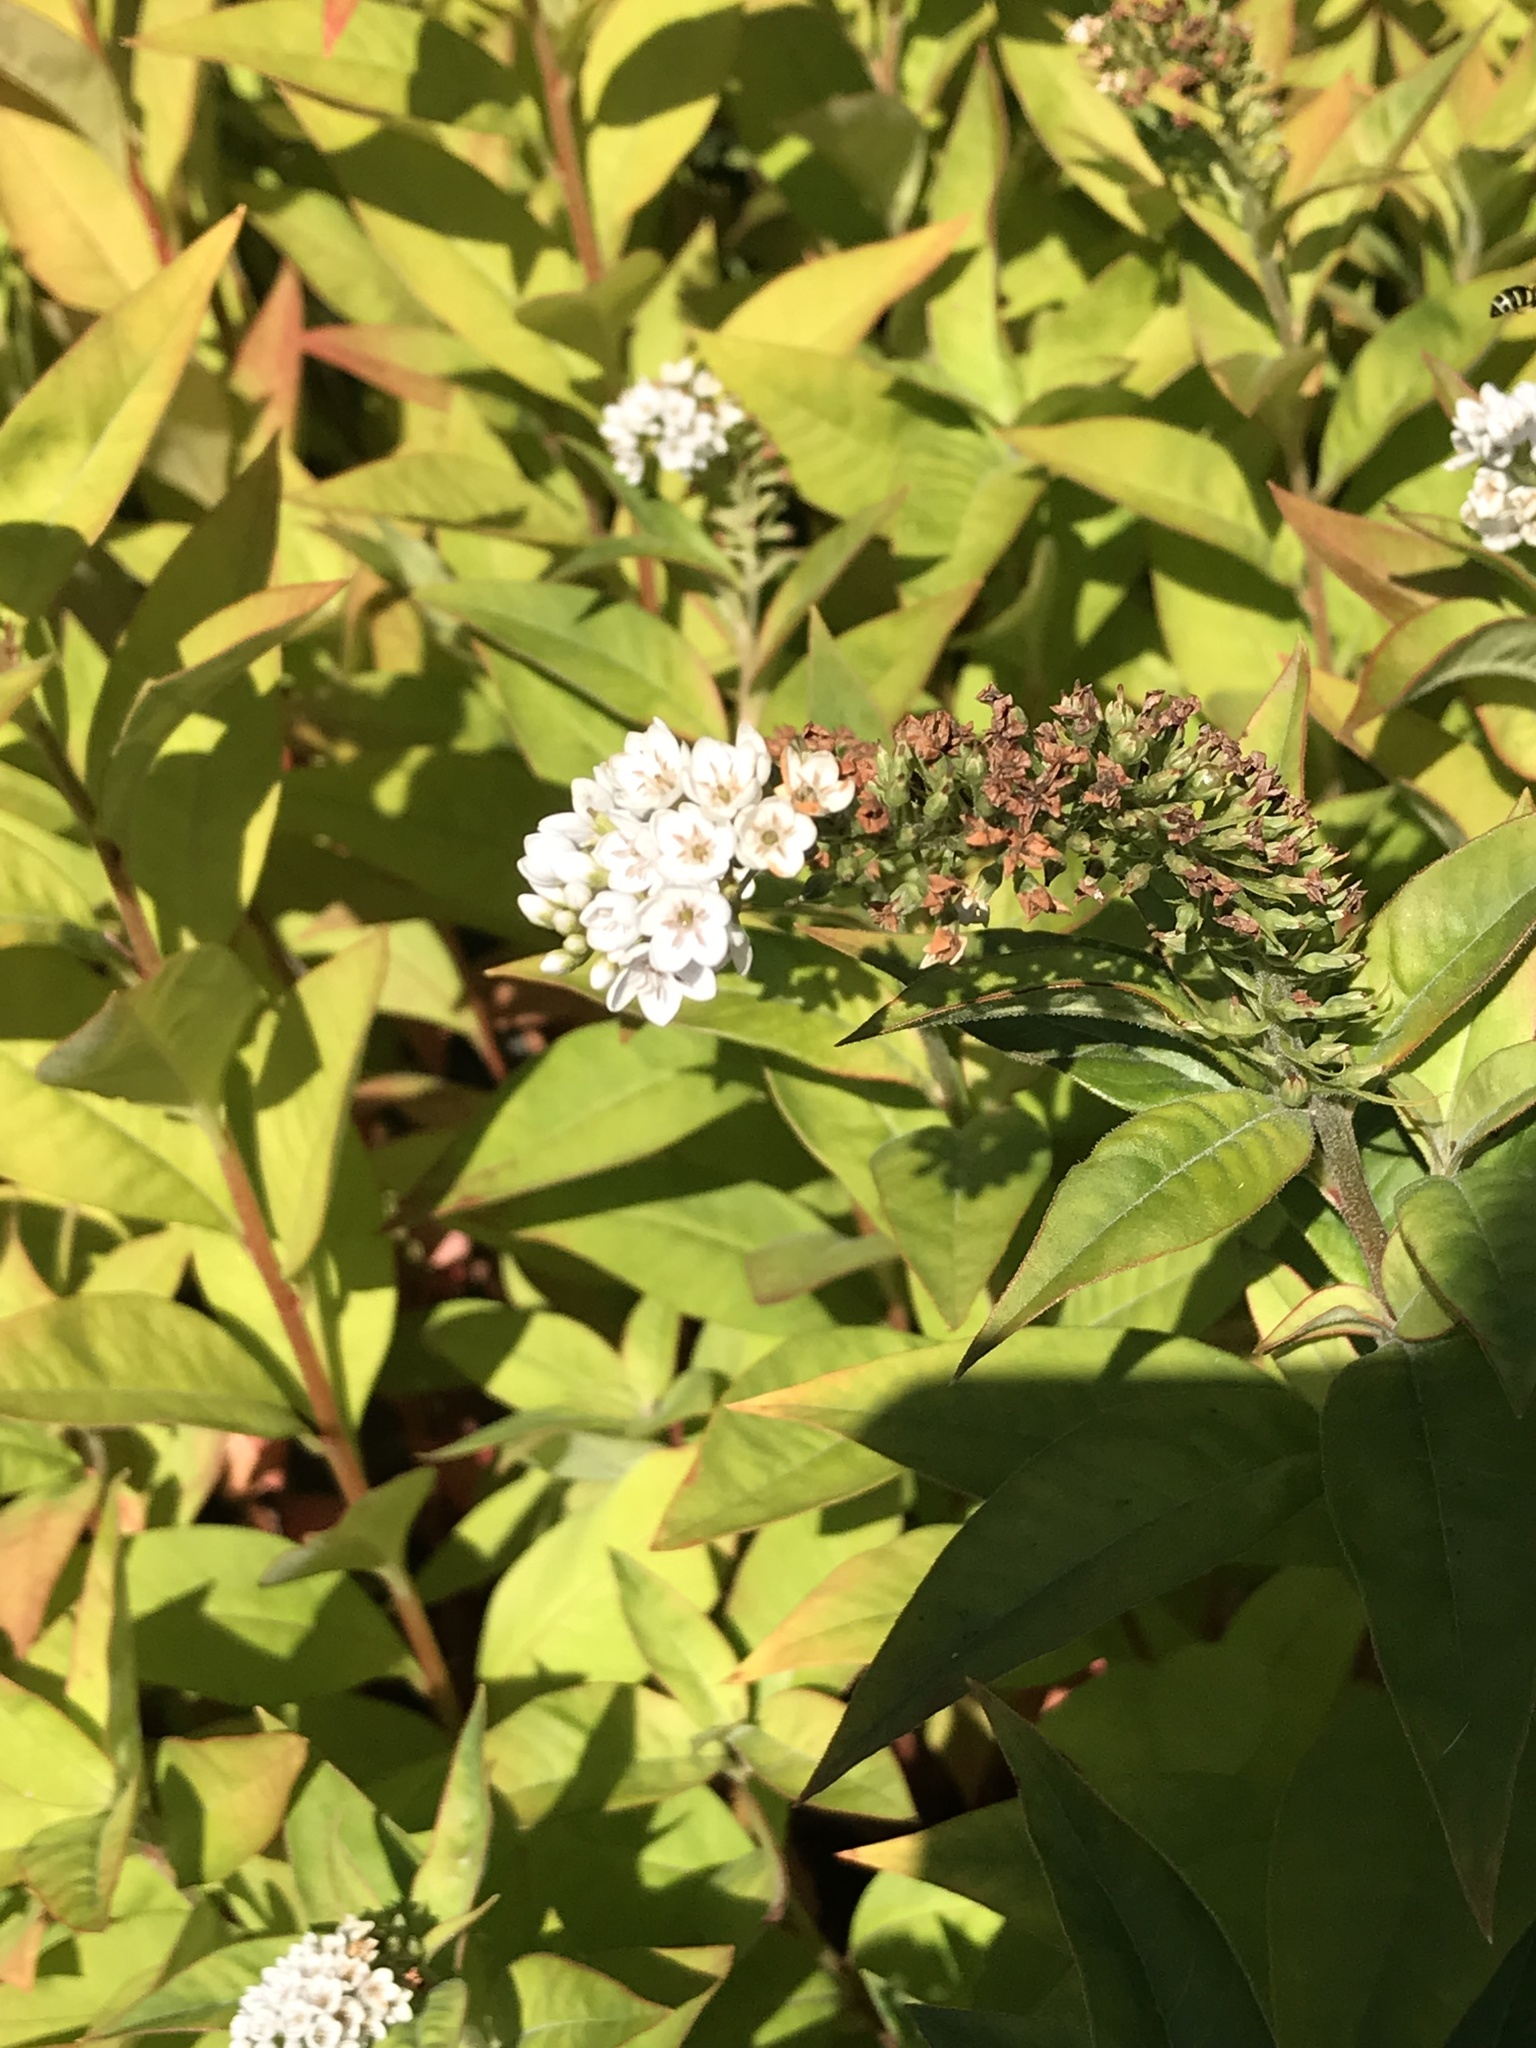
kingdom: Plantae
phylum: Tracheophyta
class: Magnoliopsida
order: Ericales
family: Primulaceae
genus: Lysimachia
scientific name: Lysimachia clethroides
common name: Gooseneck loosestrife
